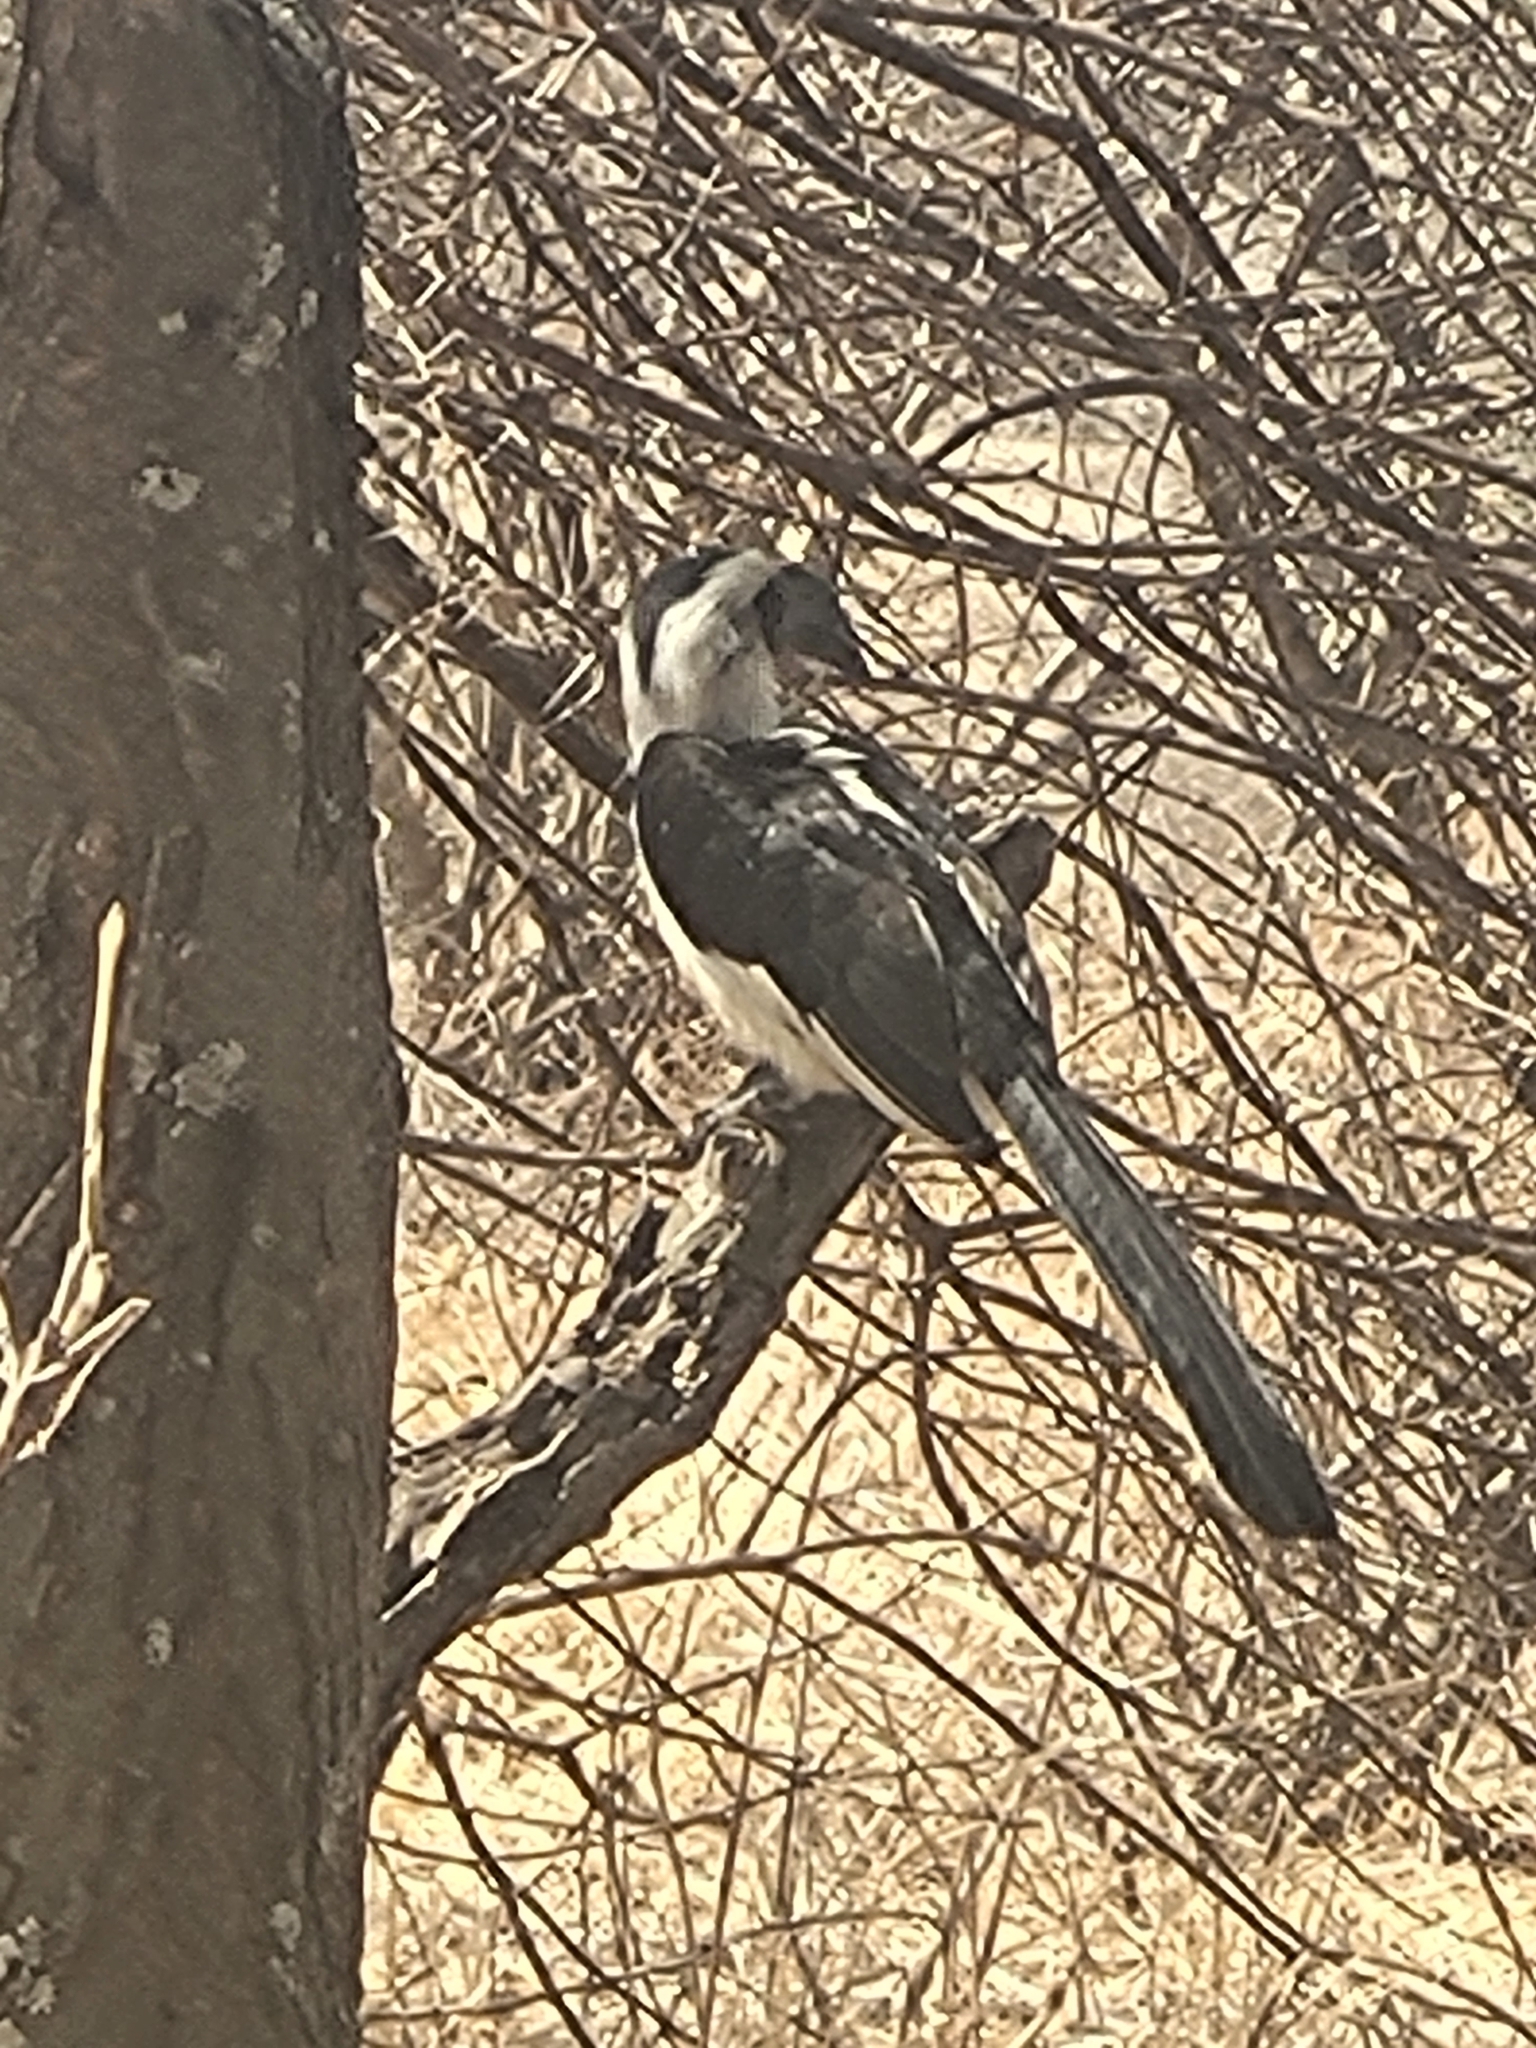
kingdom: Animalia
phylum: Chordata
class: Aves
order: Bucerotiformes
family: Bucerotidae
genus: Tockus
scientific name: Tockus deckeni
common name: Von der decken's hornbill
